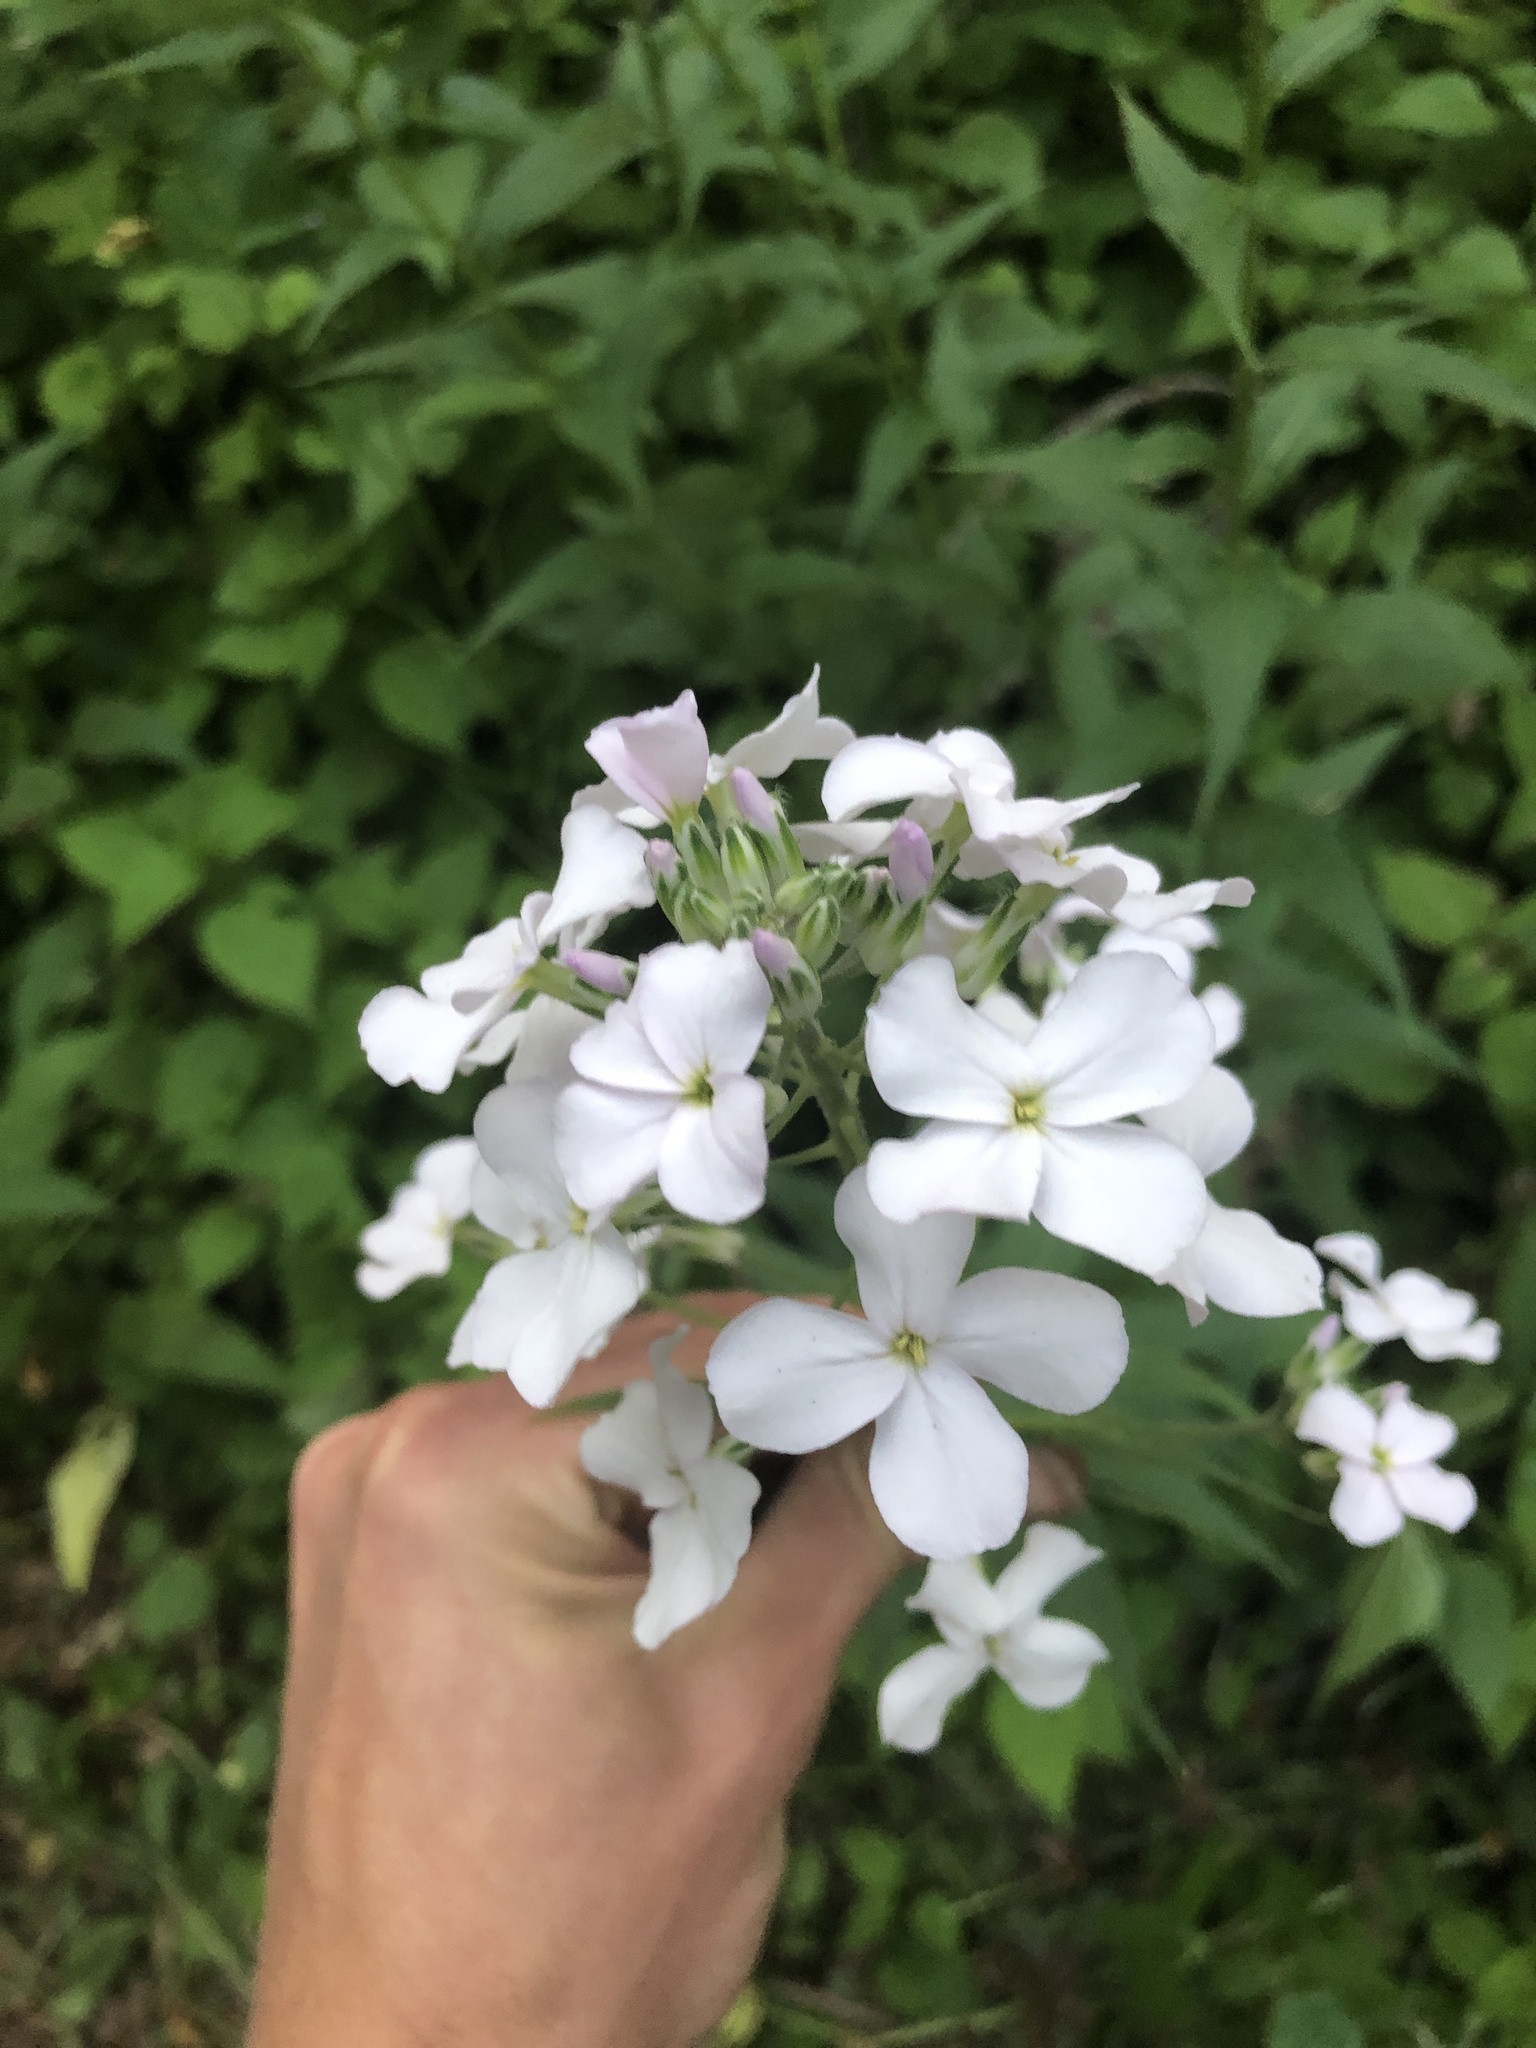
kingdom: Plantae
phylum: Tracheophyta
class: Magnoliopsida
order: Brassicales
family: Brassicaceae
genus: Hesperis
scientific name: Hesperis matronalis
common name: Dame's-violet
